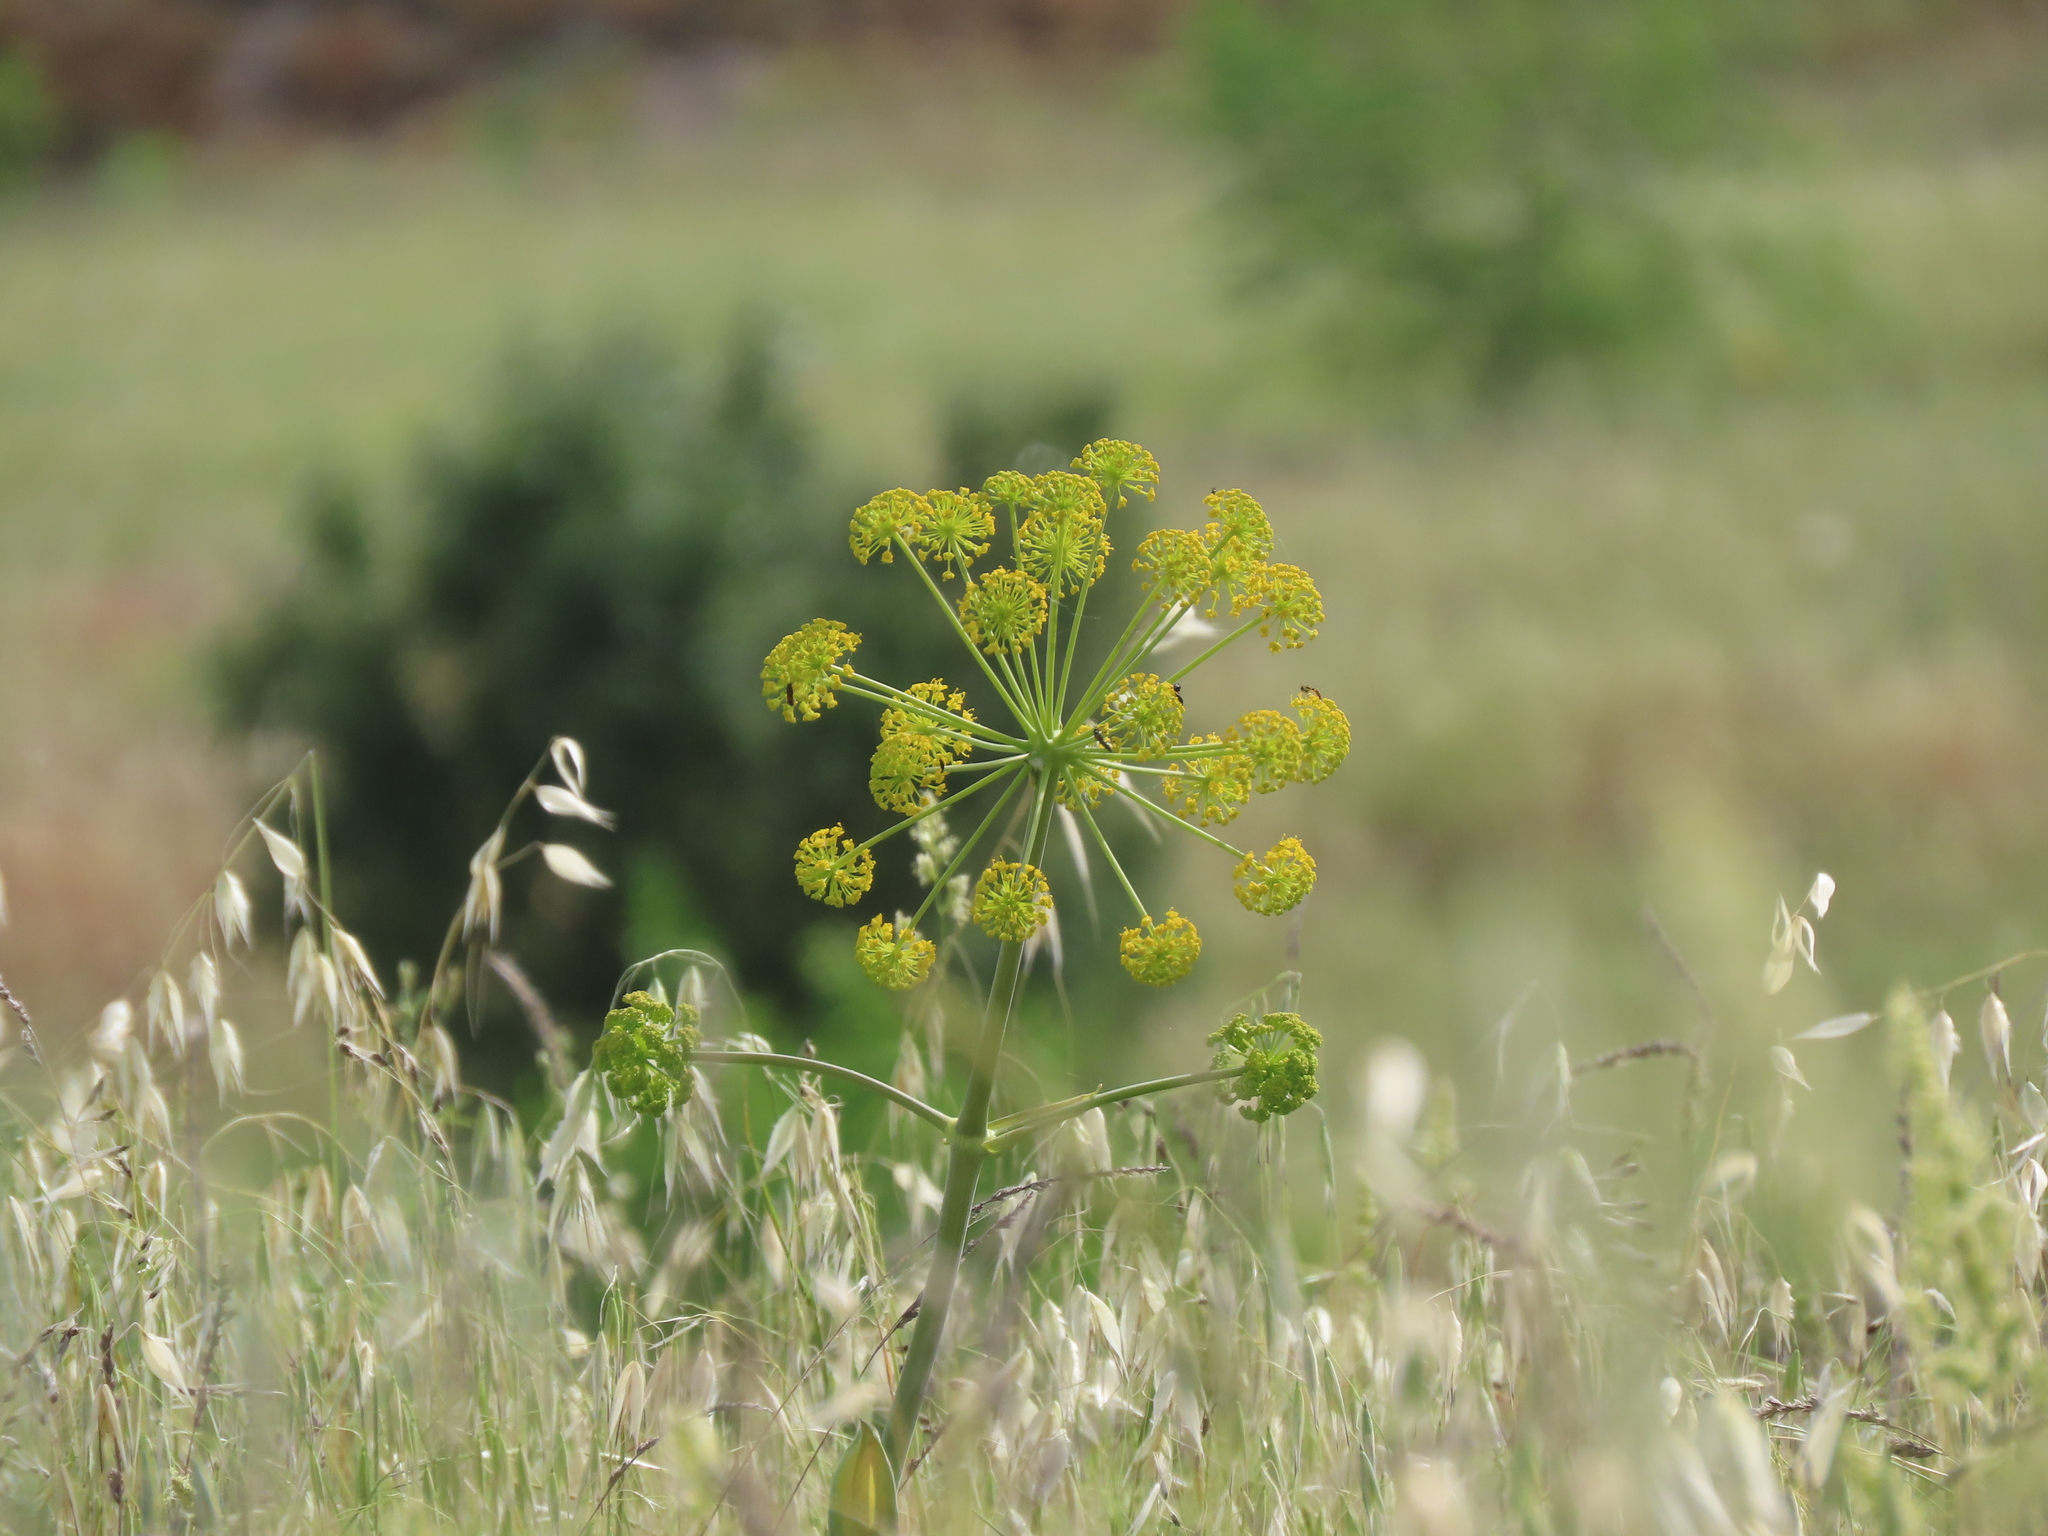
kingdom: Plantae
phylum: Tracheophyta
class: Magnoliopsida
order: Apiales
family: Apiaceae
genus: Thapsia
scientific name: Thapsia villosa
